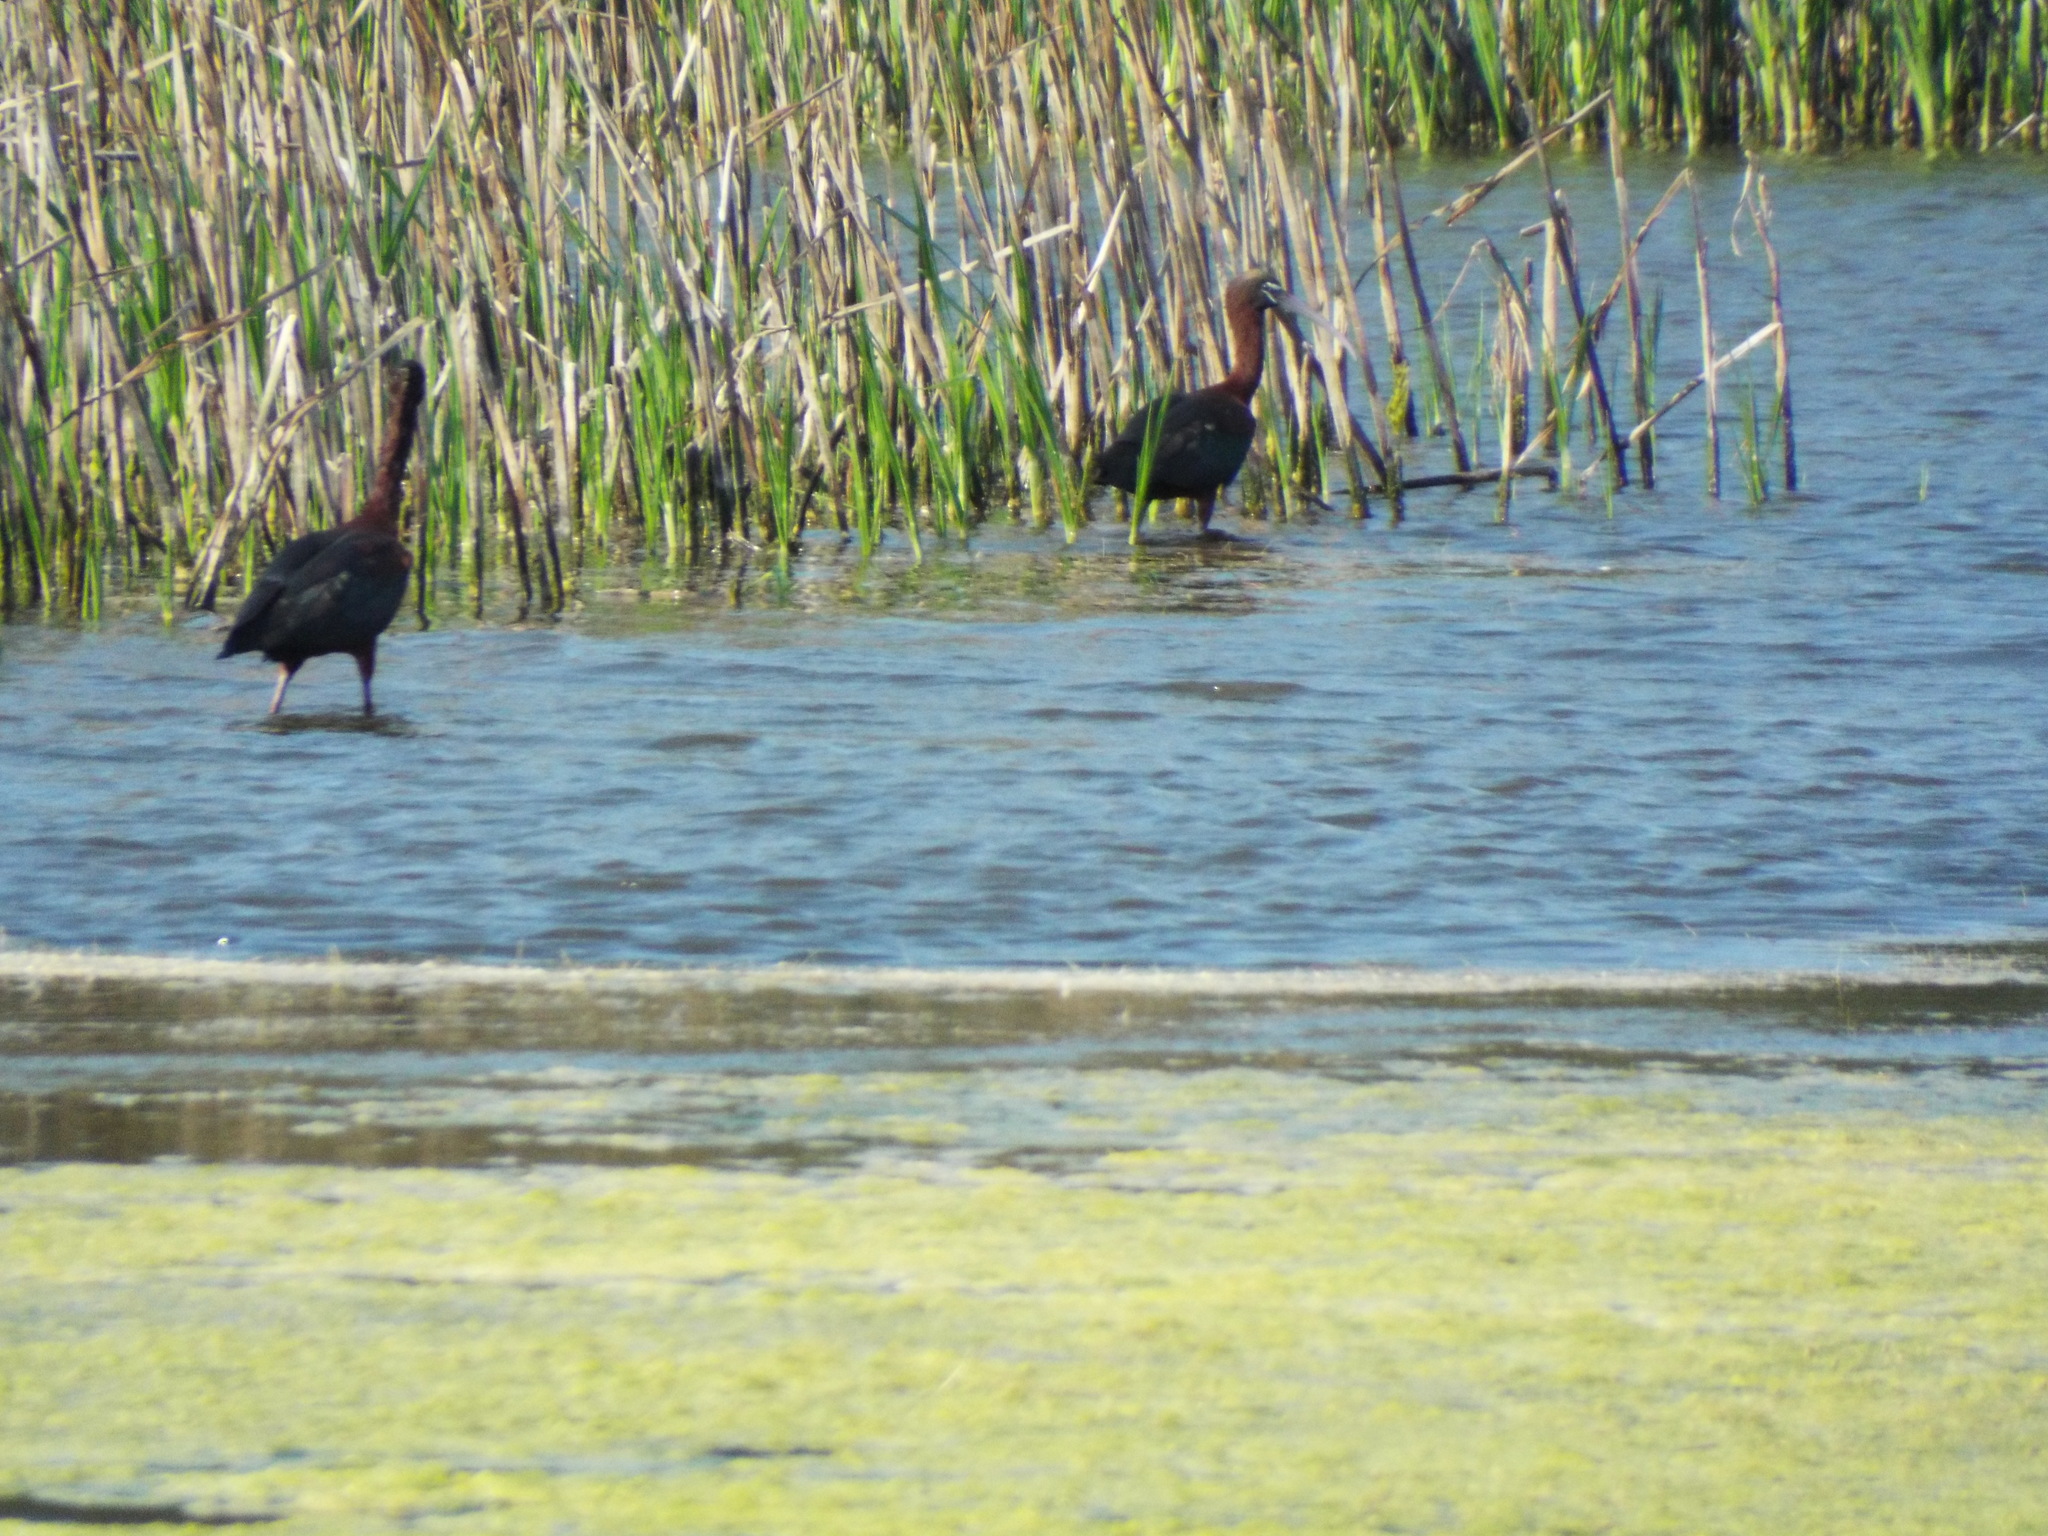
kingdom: Animalia
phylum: Chordata
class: Aves
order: Pelecaniformes
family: Threskiornithidae
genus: Plegadis
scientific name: Plegadis falcinellus
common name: Glossy ibis
